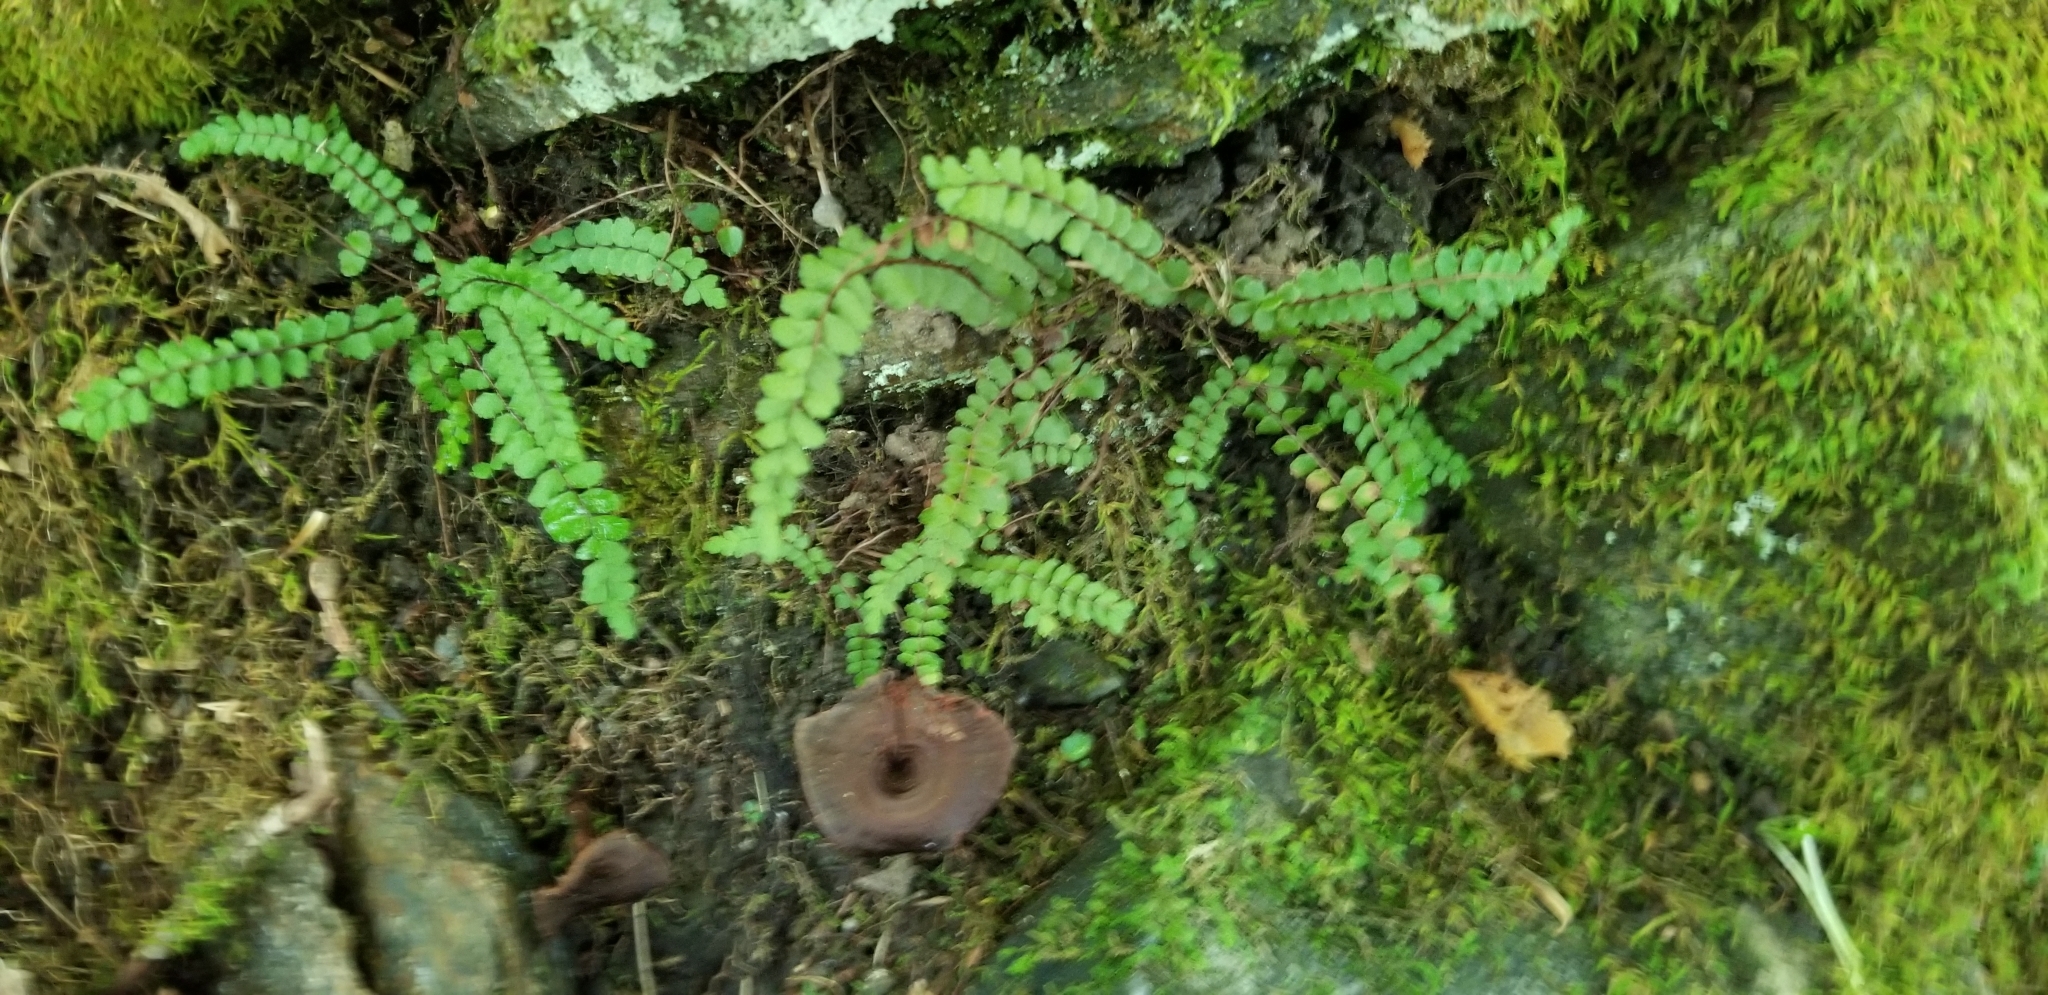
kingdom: Plantae
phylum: Tracheophyta
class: Polypodiopsida
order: Polypodiales
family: Aspleniaceae
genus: Asplenium
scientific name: Asplenium trichomanes
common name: Maidenhair spleenwort
